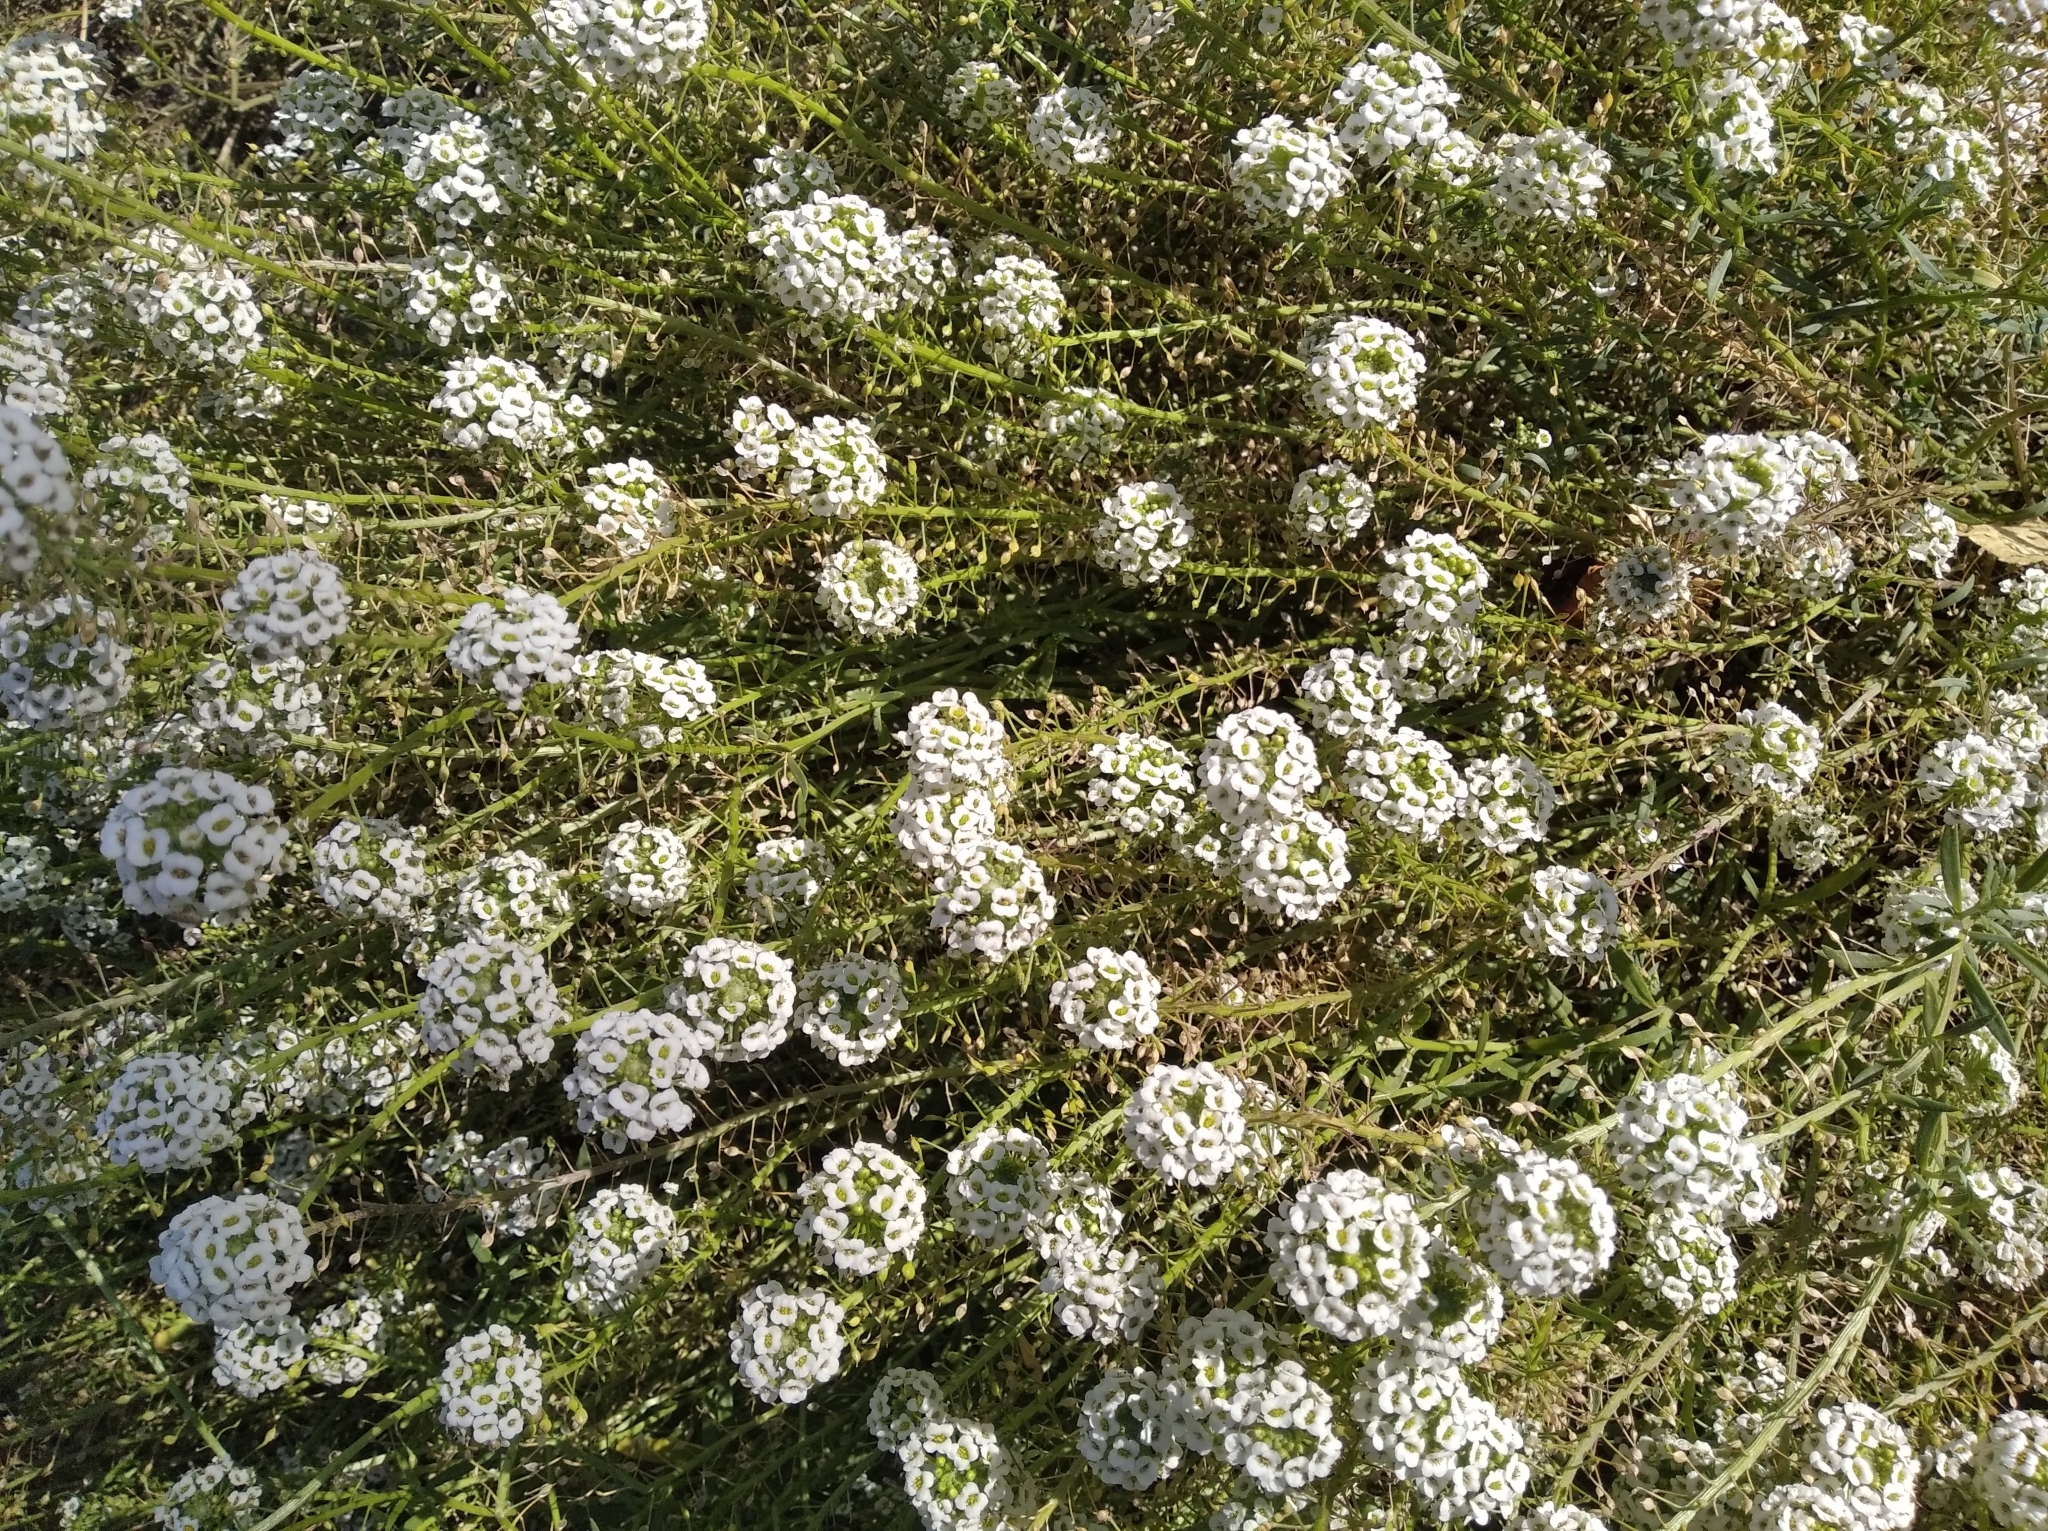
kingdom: Plantae
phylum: Tracheophyta
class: Magnoliopsida
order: Brassicales
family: Brassicaceae
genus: Lobularia
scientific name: Lobularia maritima
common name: Sweet alison
